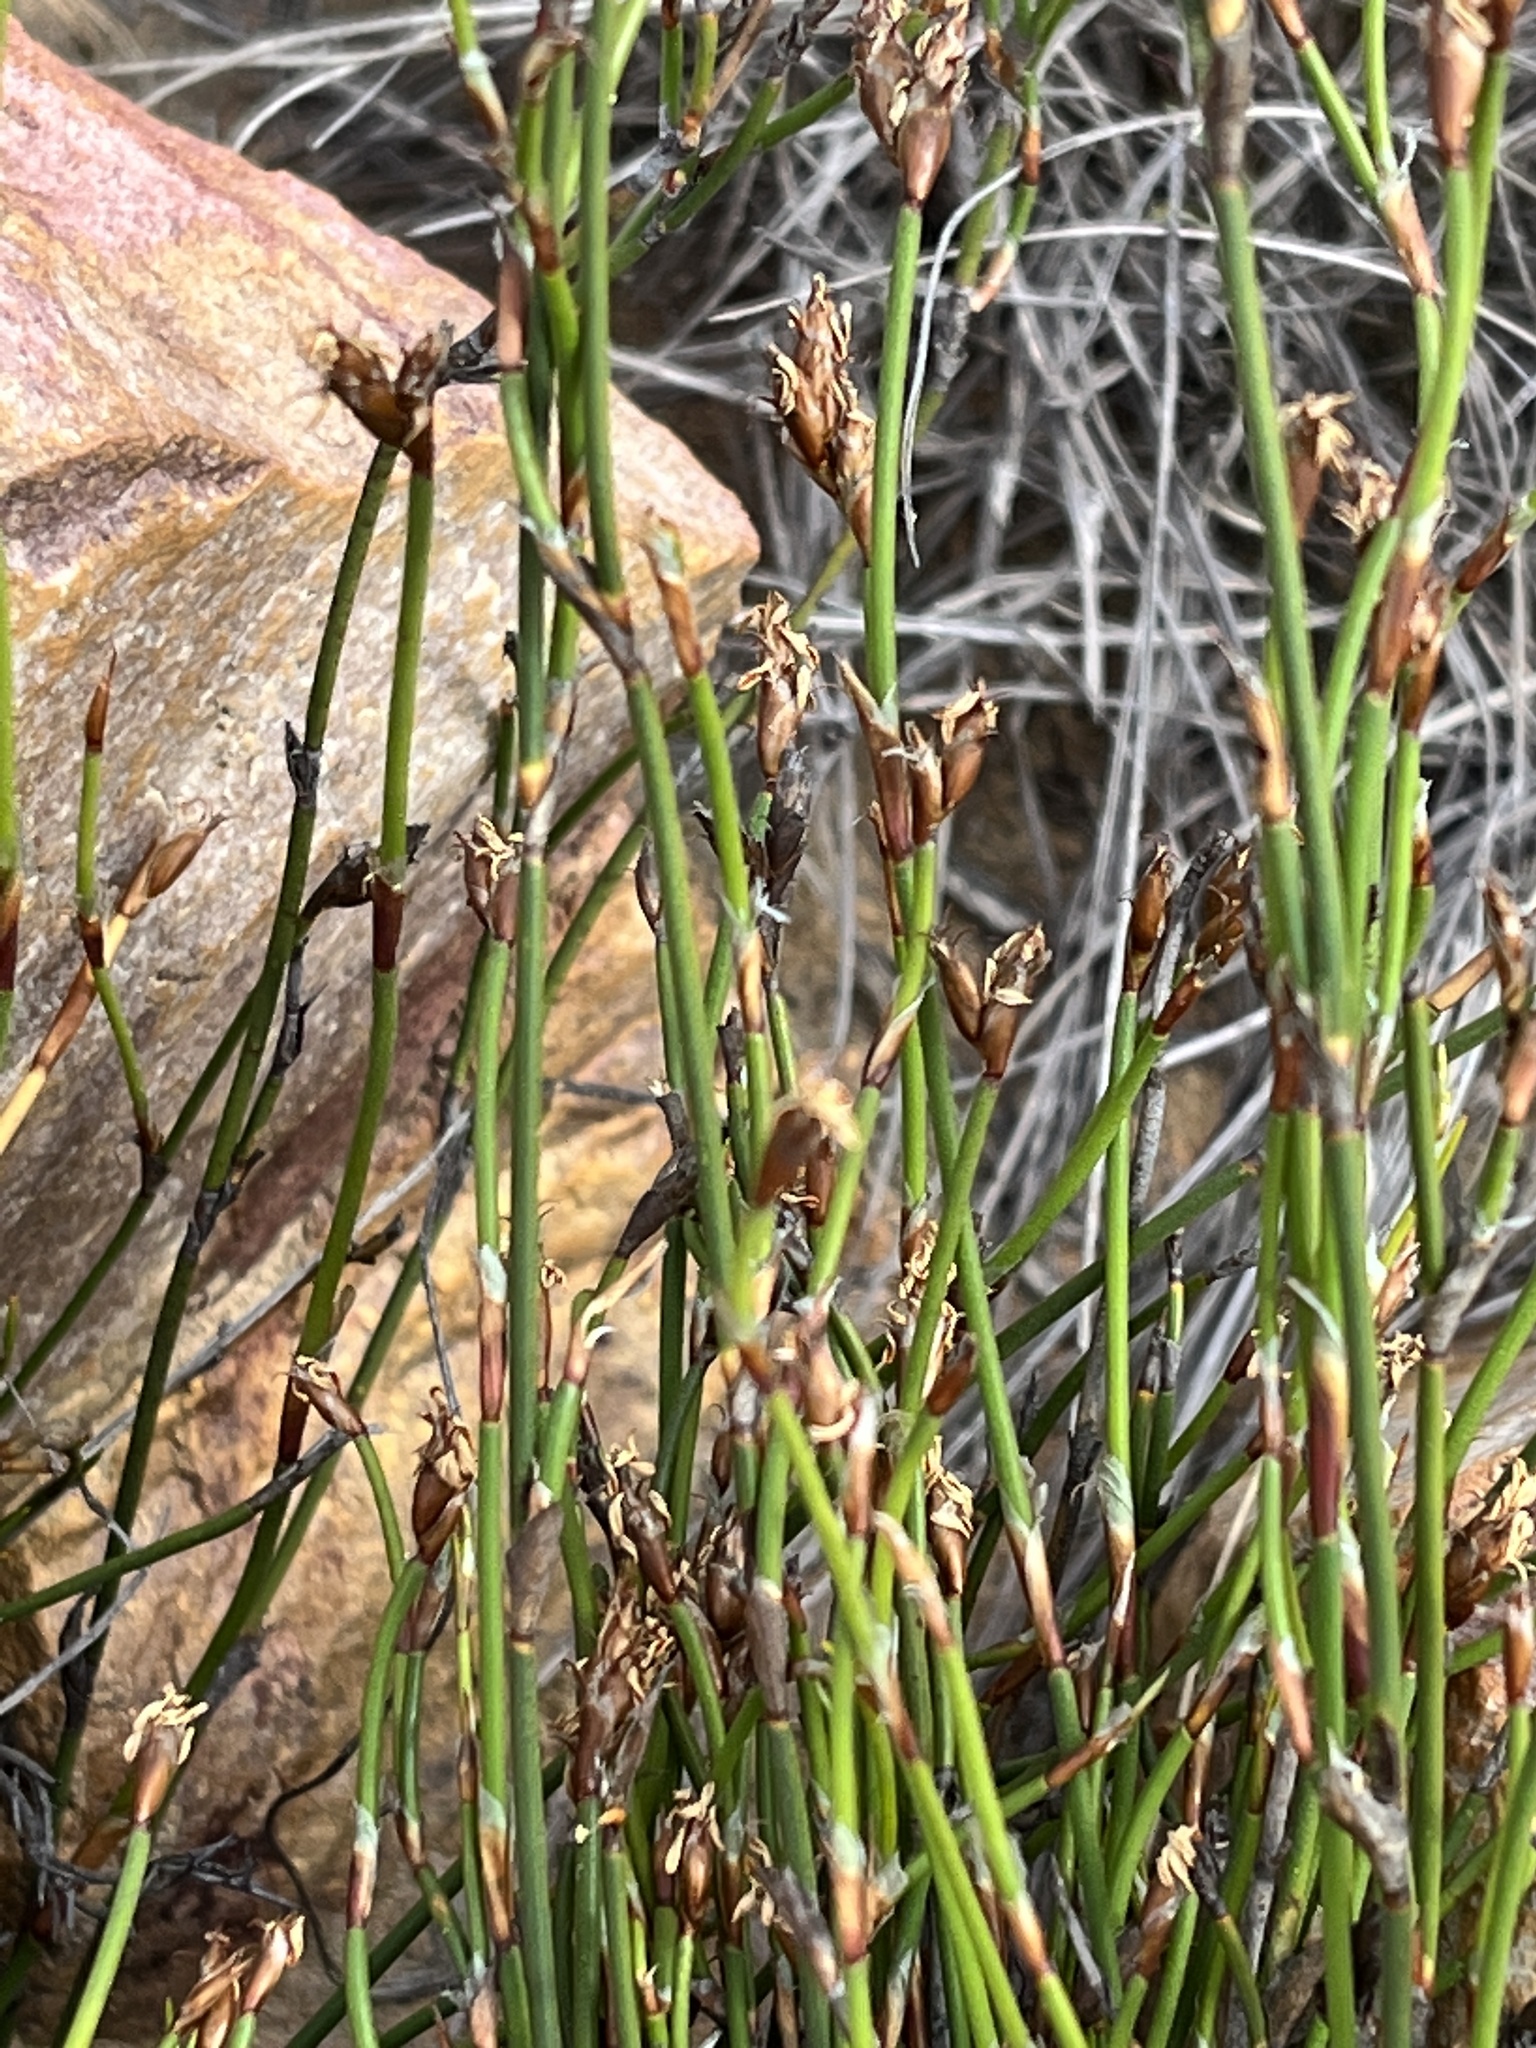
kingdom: Plantae
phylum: Tracheophyta
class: Liliopsida
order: Poales
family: Restionaceae
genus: Restio
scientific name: Restio capensis
